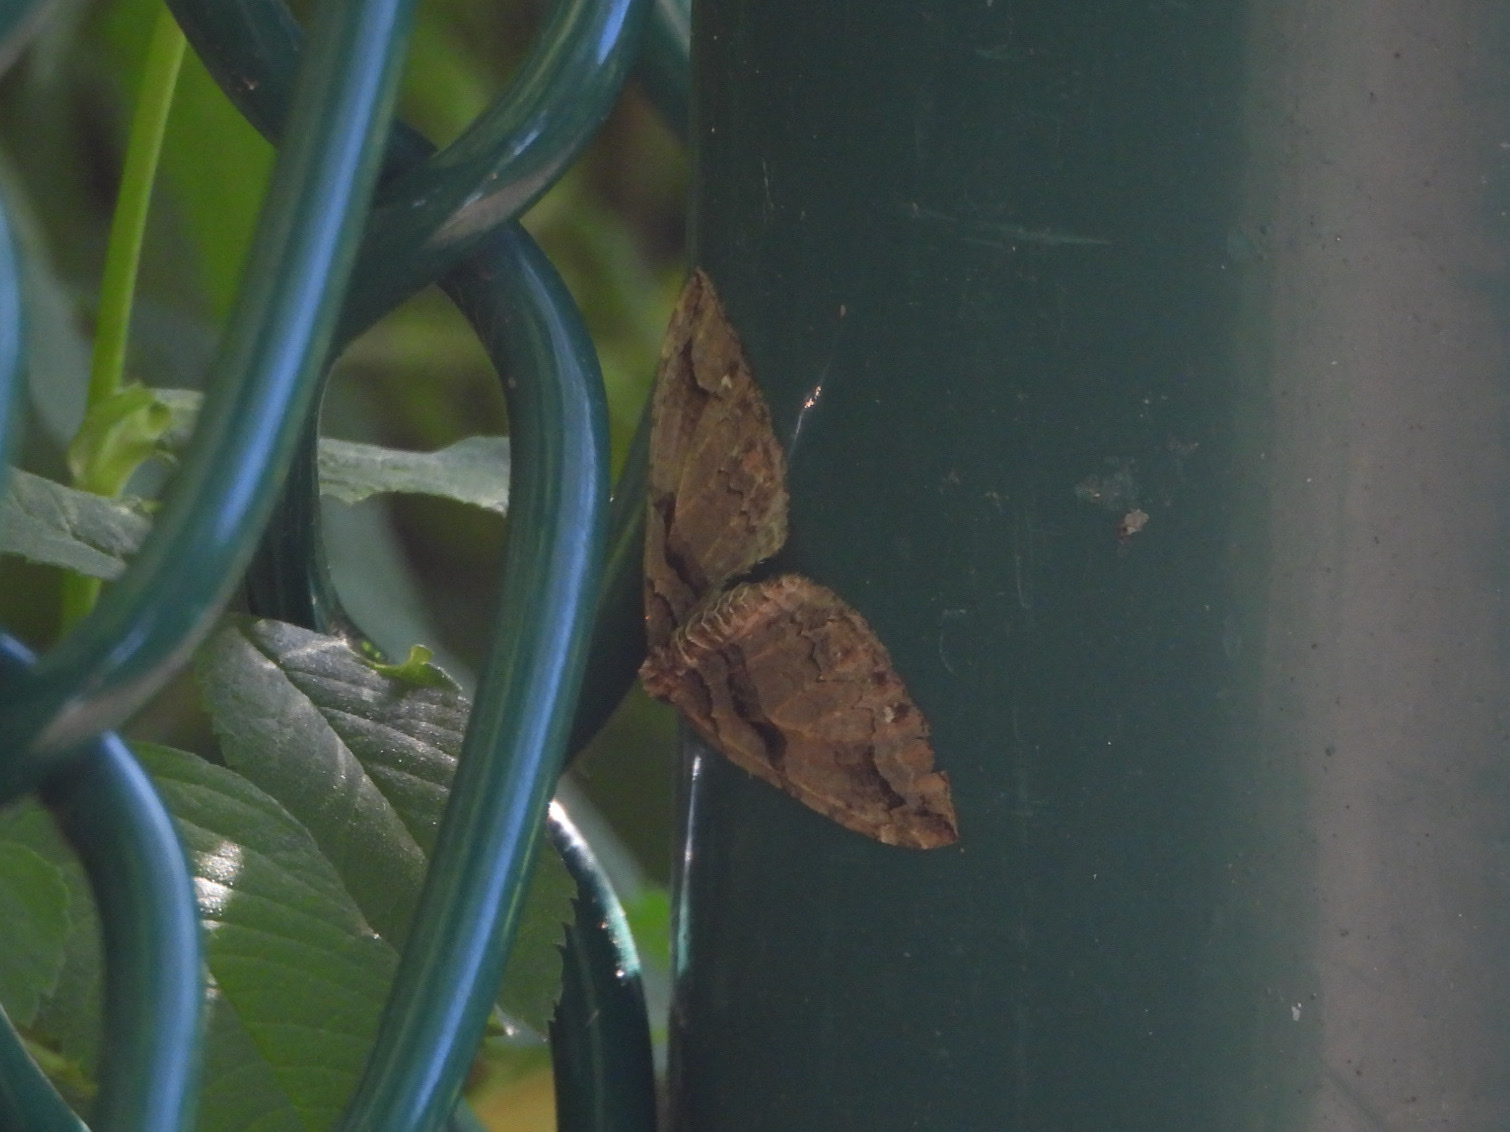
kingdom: Animalia
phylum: Arthropoda
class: Insecta
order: Lepidoptera
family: Geometridae
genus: Anticlea
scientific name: Anticlea vasiliata
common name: Variable carpet
